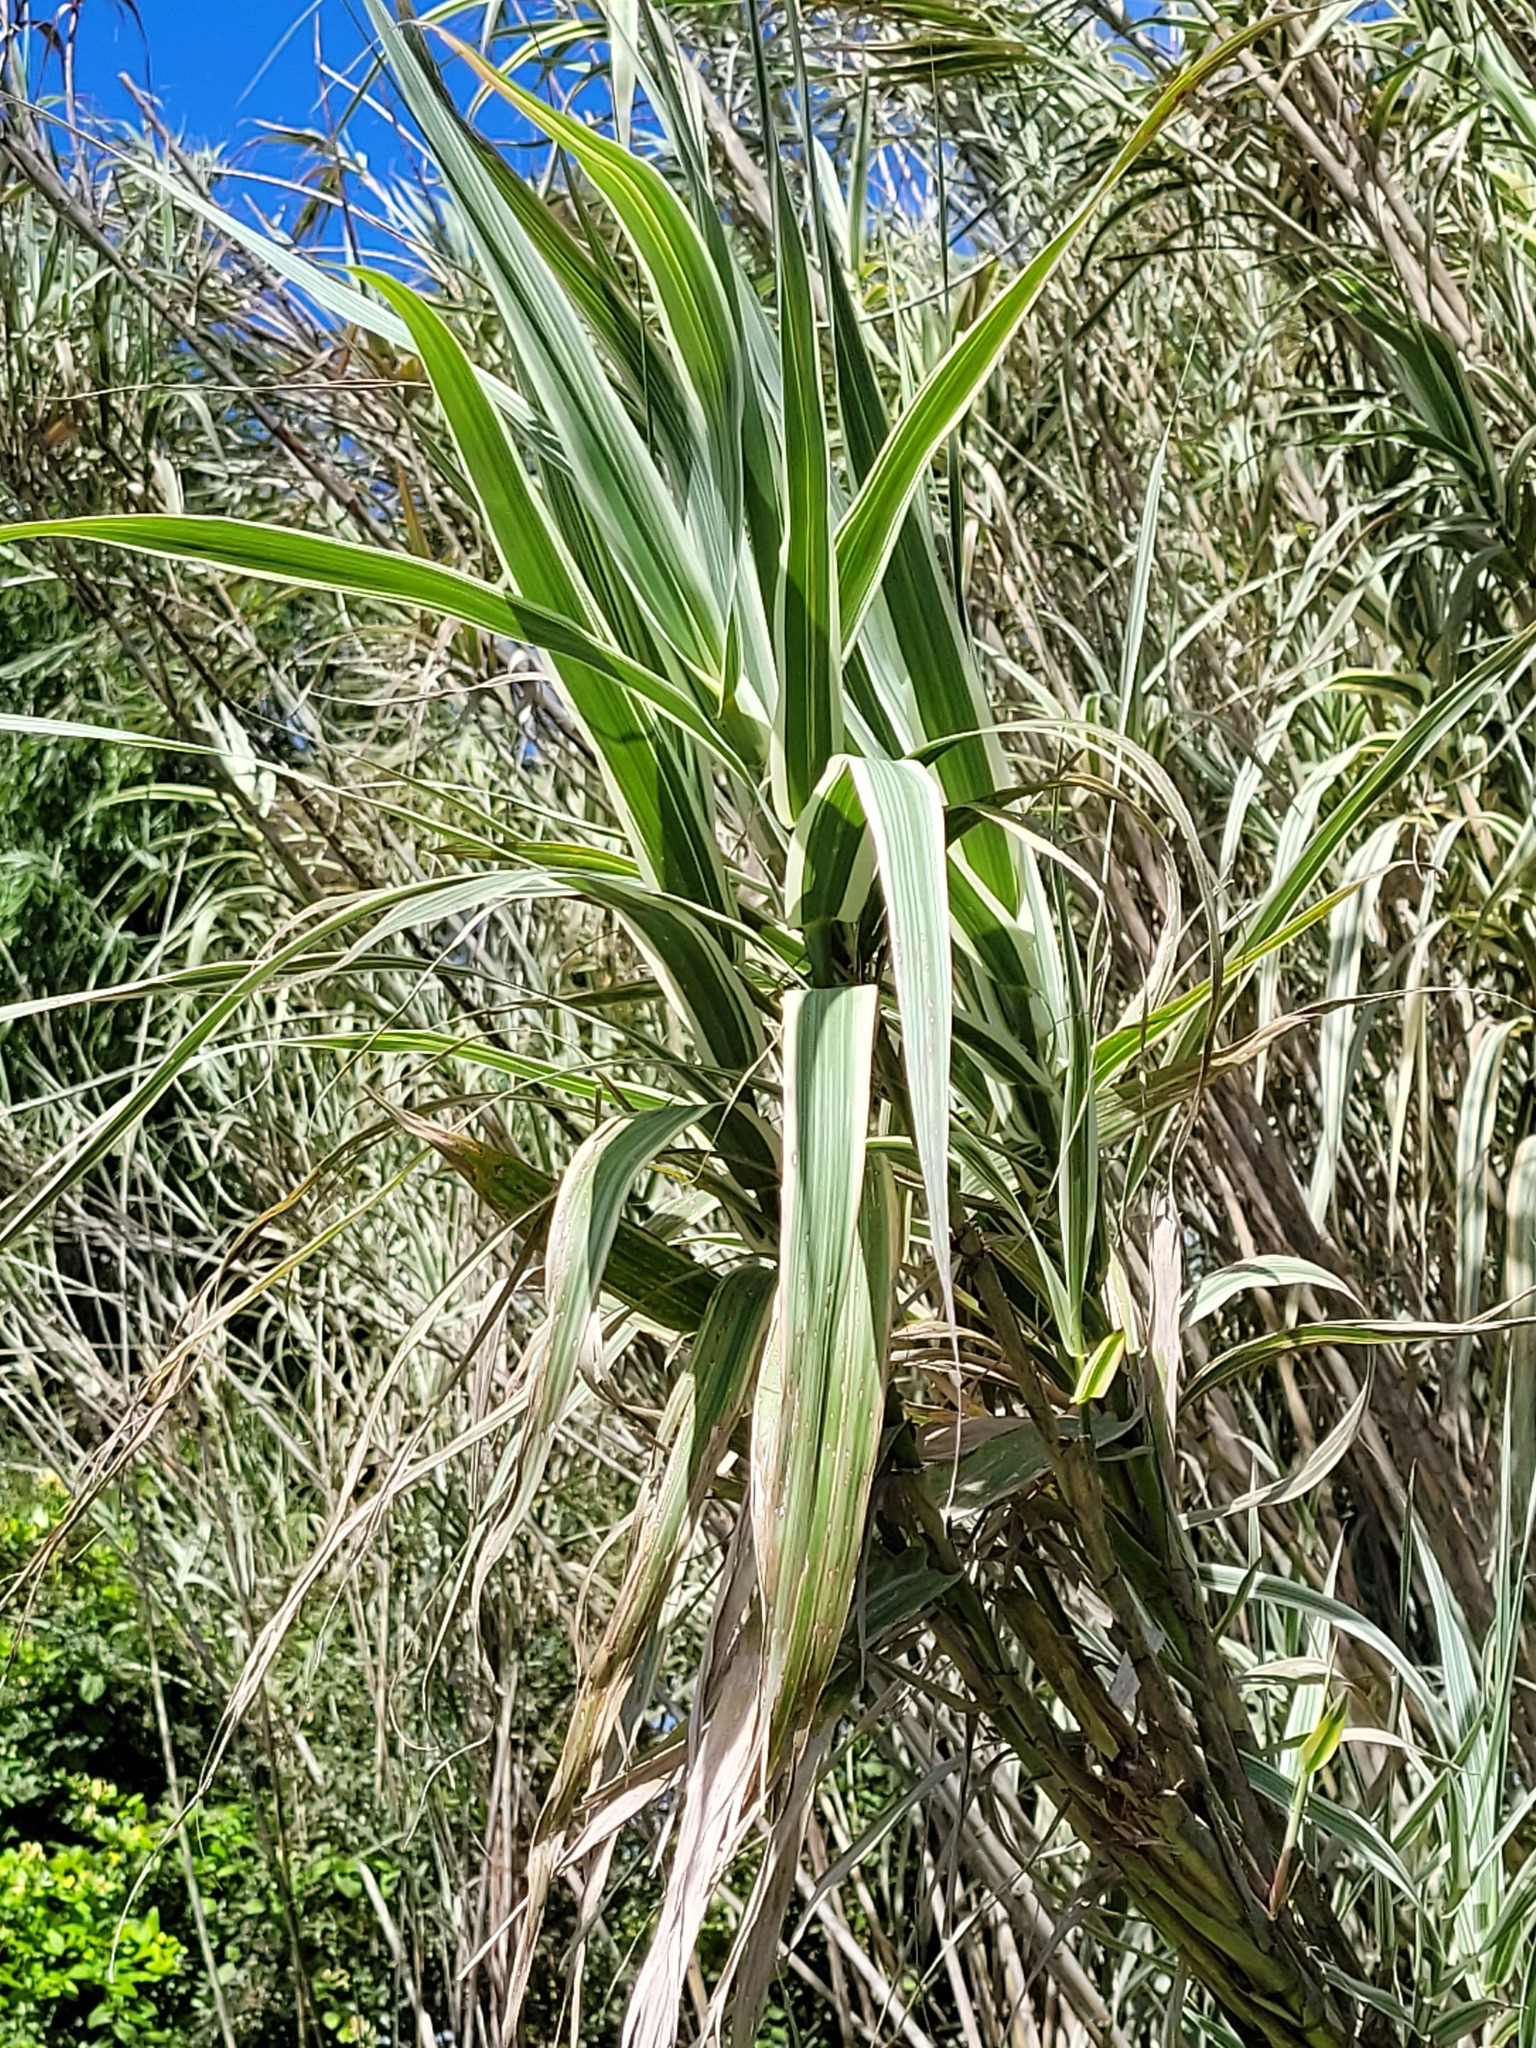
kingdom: Plantae
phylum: Tracheophyta
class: Liliopsida
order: Poales
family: Poaceae
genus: Arundo
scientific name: Arundo donax
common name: Giant reed
